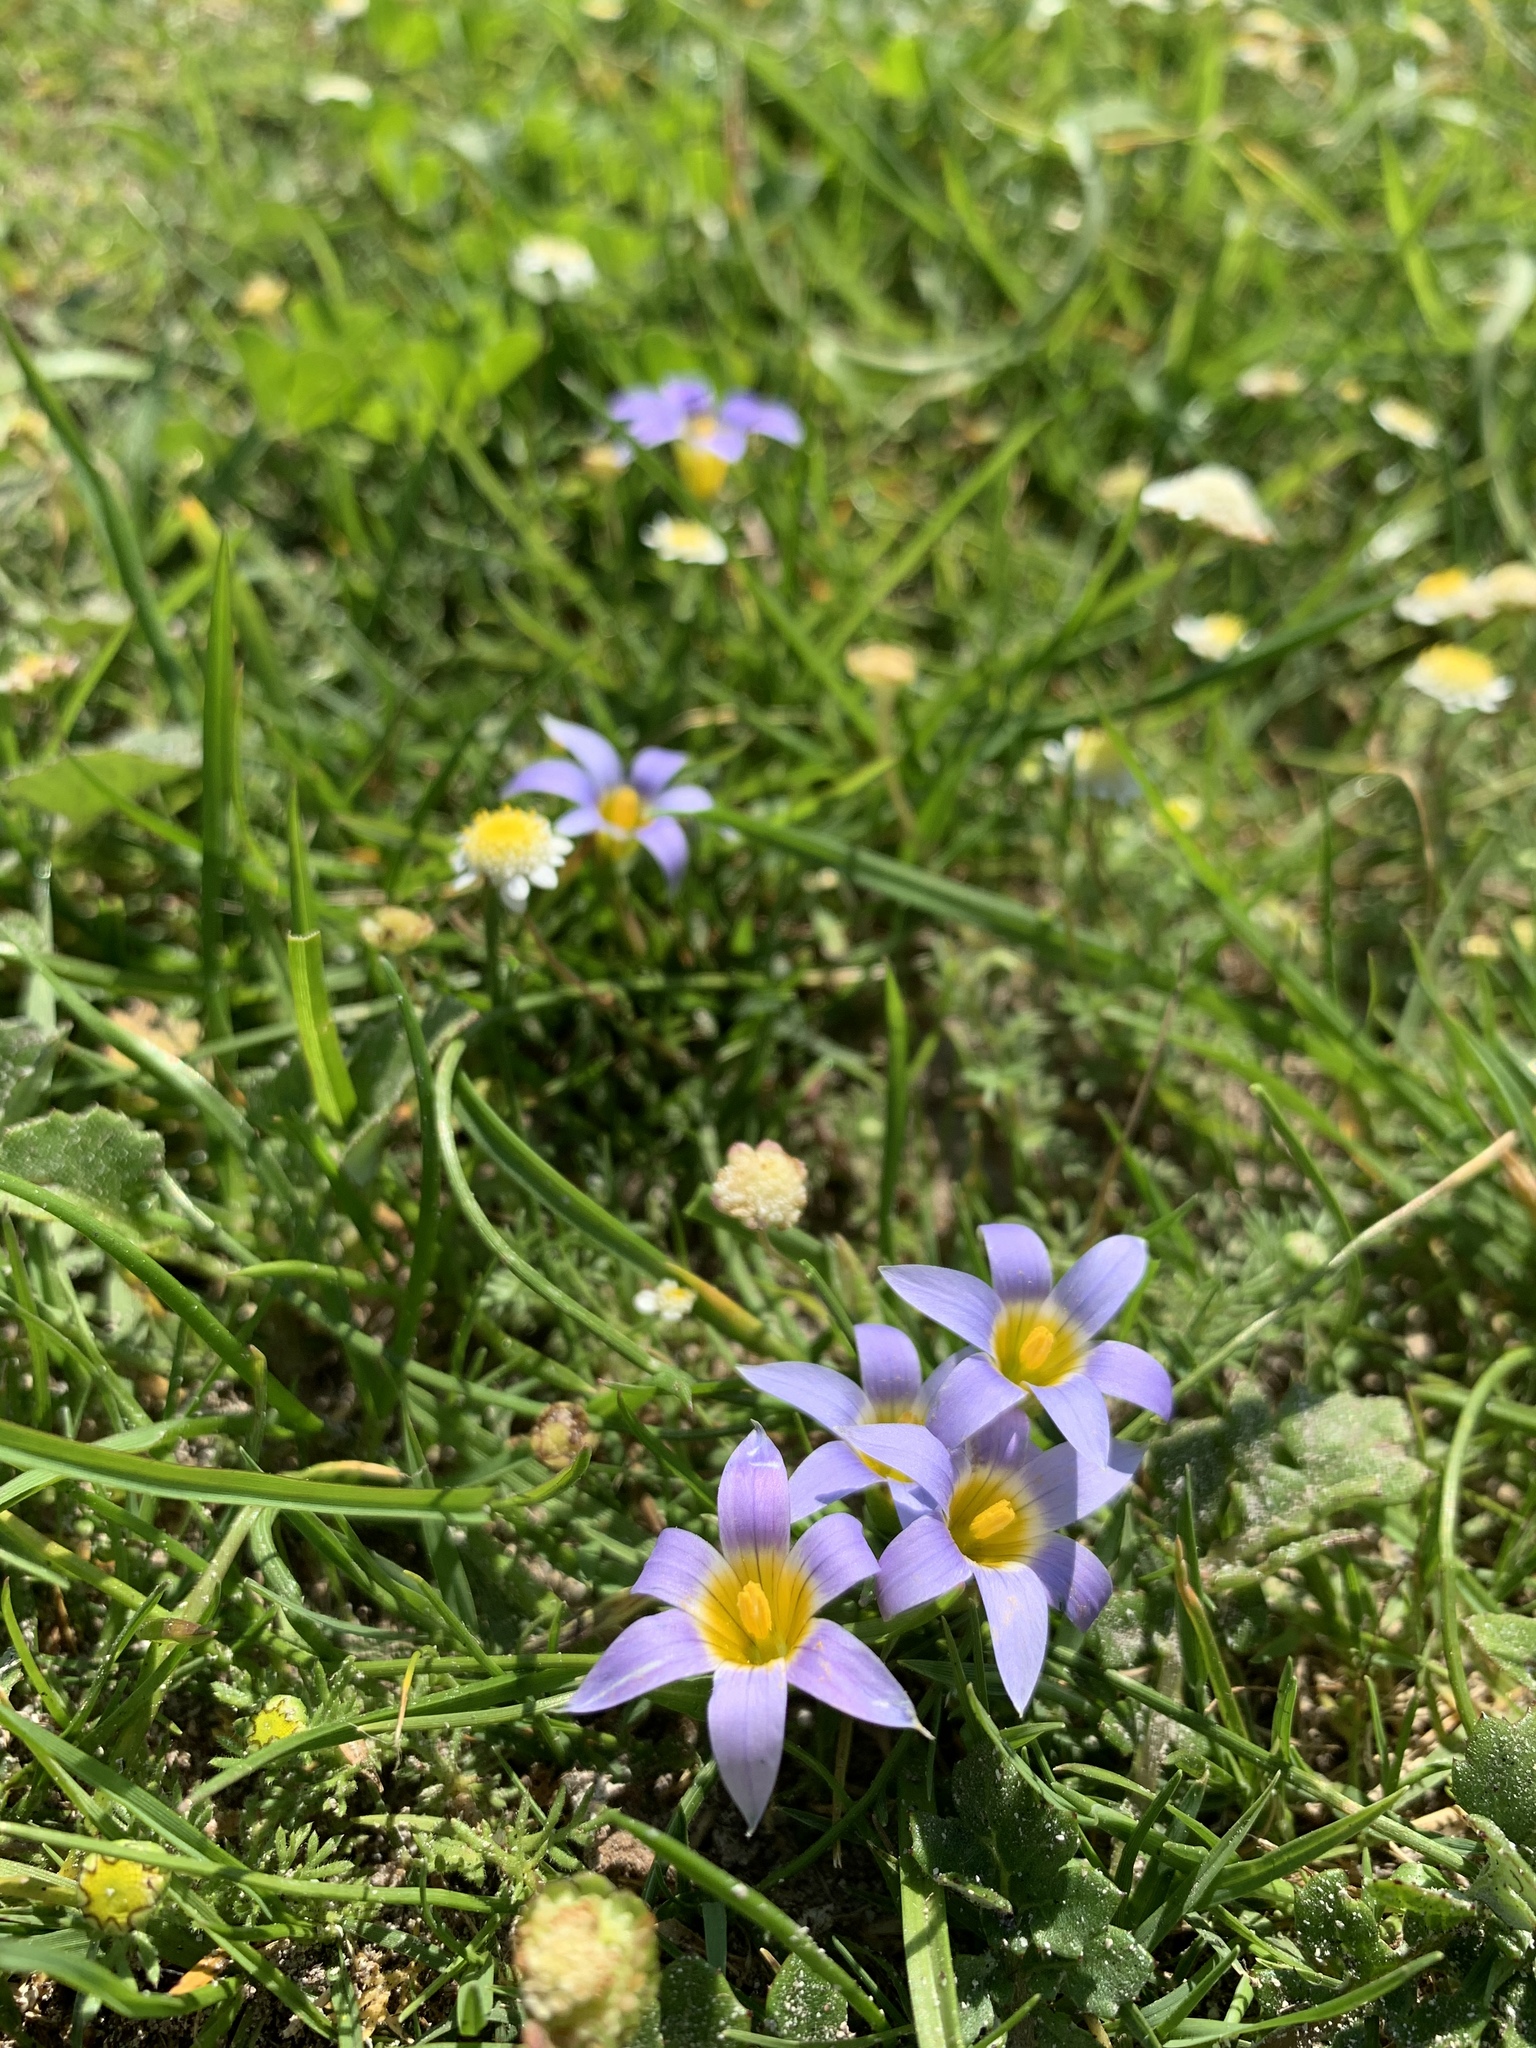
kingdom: Plantae
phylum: Tracheophyta
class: Liliopsida
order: Asparagales
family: Iridaceae
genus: Romulea
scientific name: Romulea tabularis
